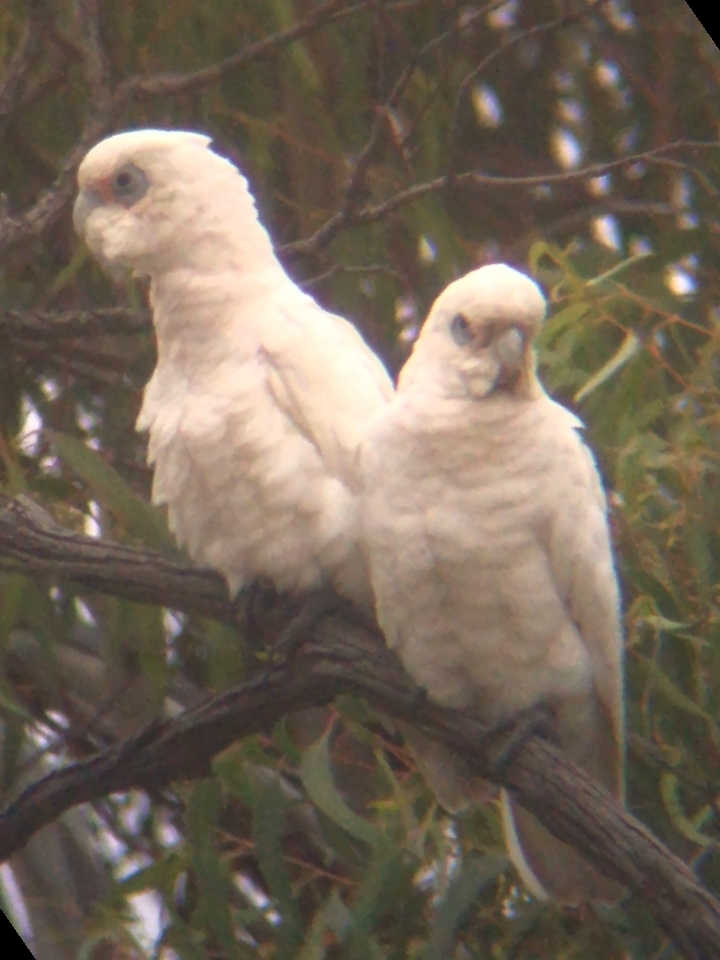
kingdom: Animalia
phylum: Chordata
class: Aves
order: Psittaciformes
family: Psittacidae
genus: Cacatua
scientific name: Cacatua sanguinea
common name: Little corella
